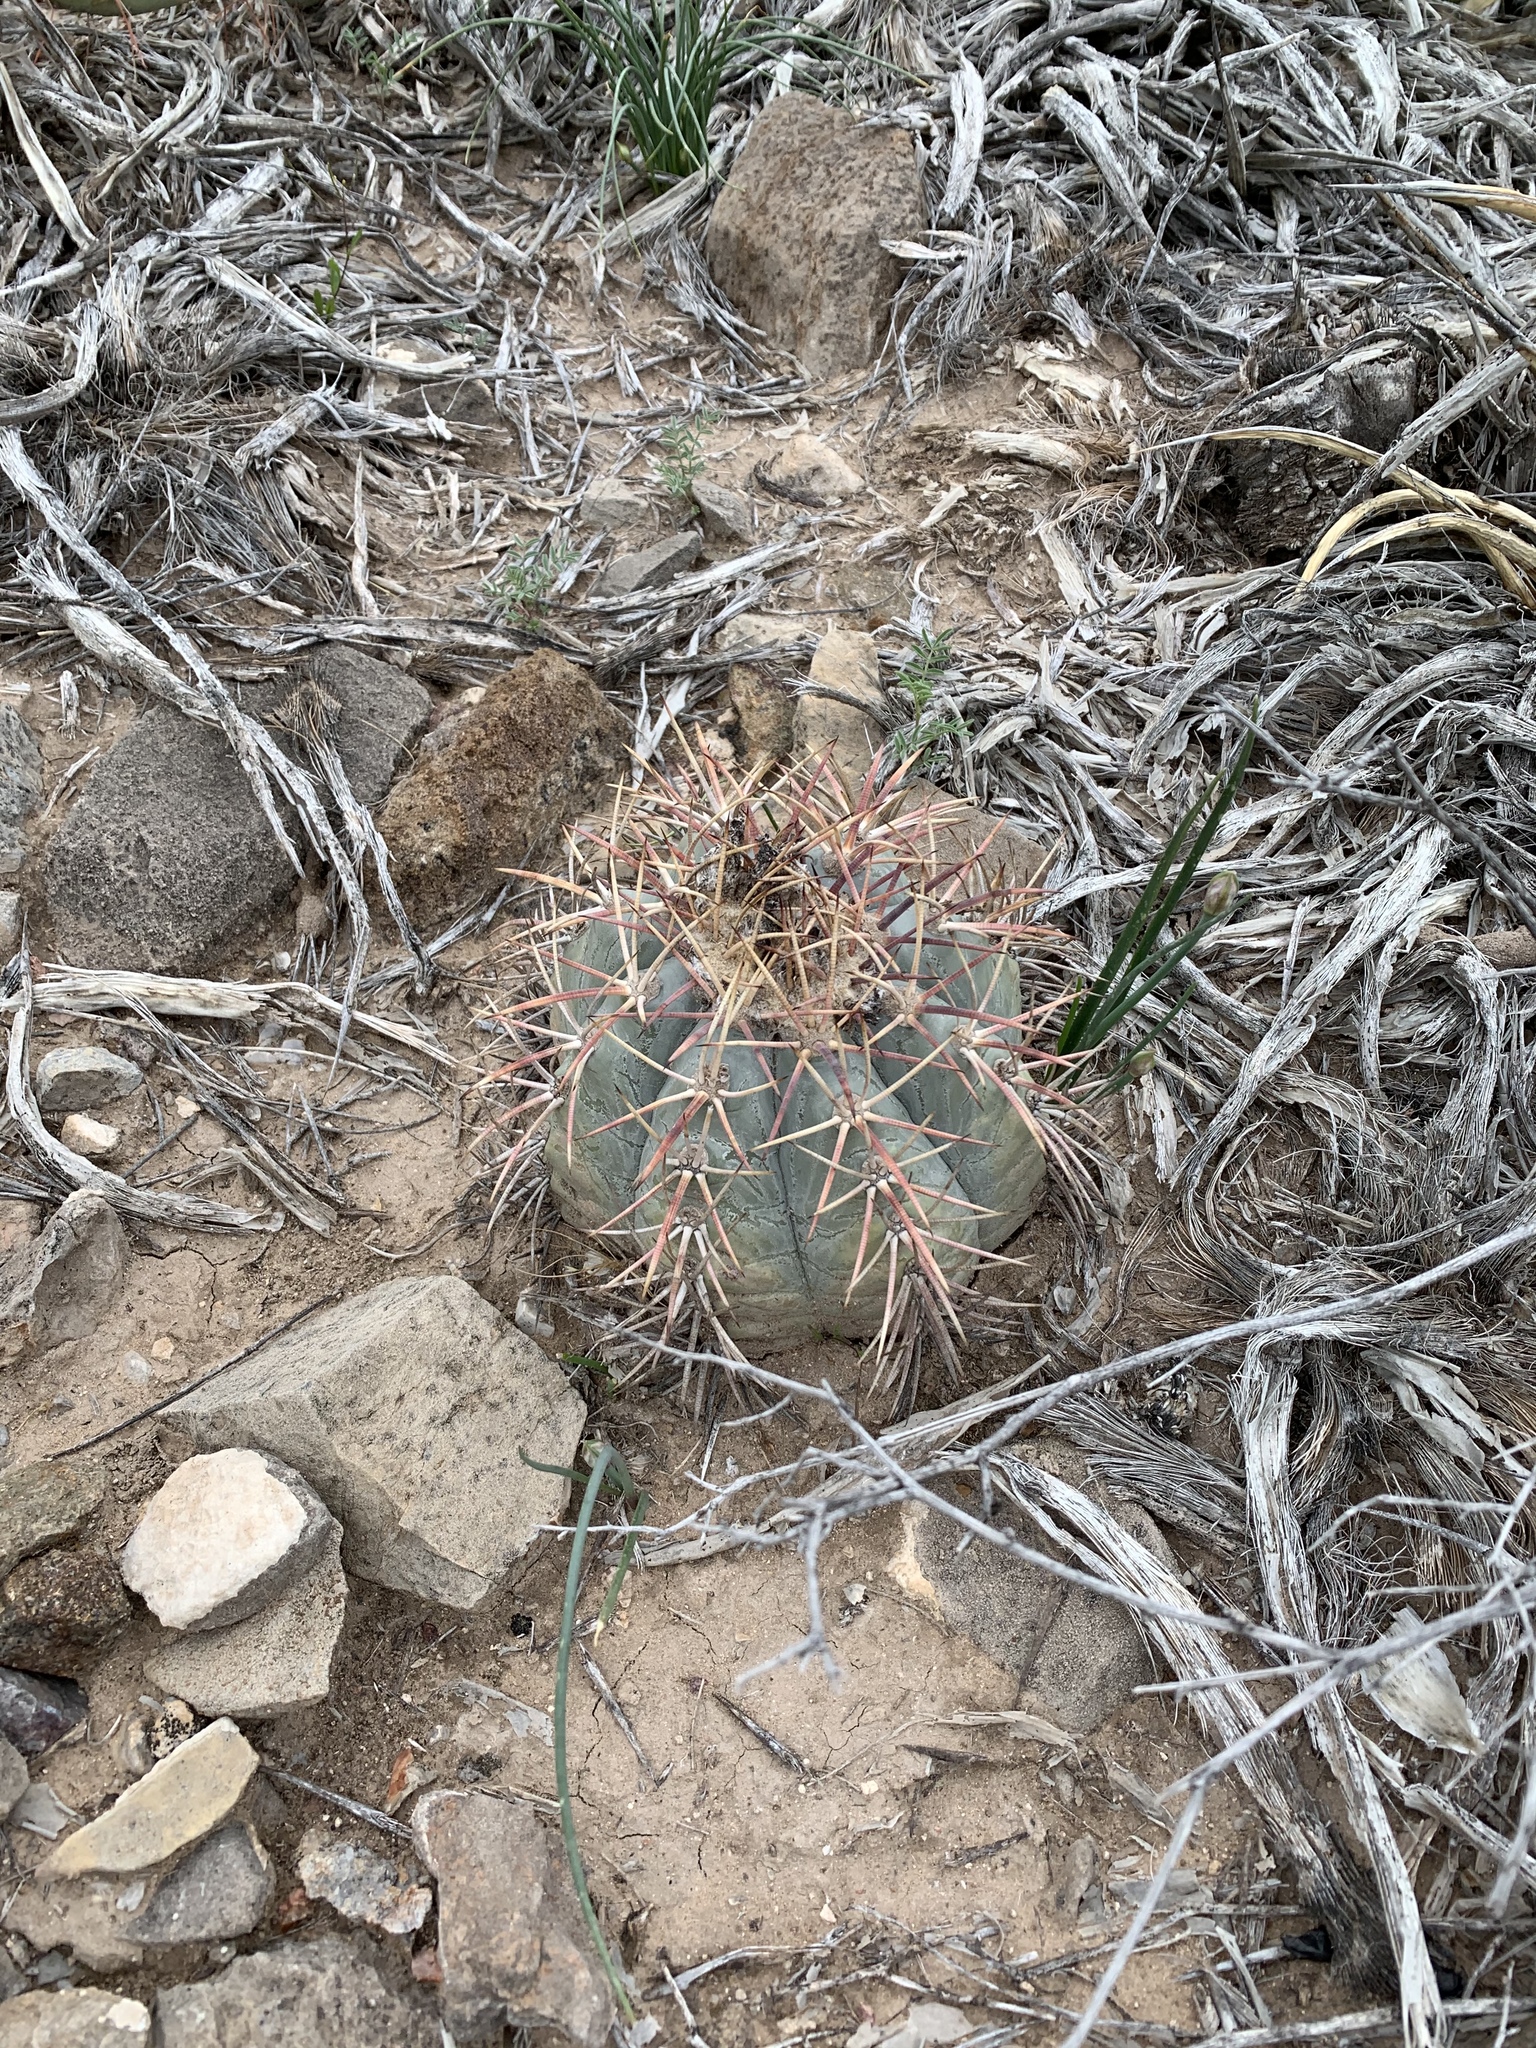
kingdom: Plantae
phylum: Tracheophyta
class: Magnoliopsida
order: Caryophyllales
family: Cactaceae
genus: Echinocactus
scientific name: Echinocactus horizonthalonius
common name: Devilshead
